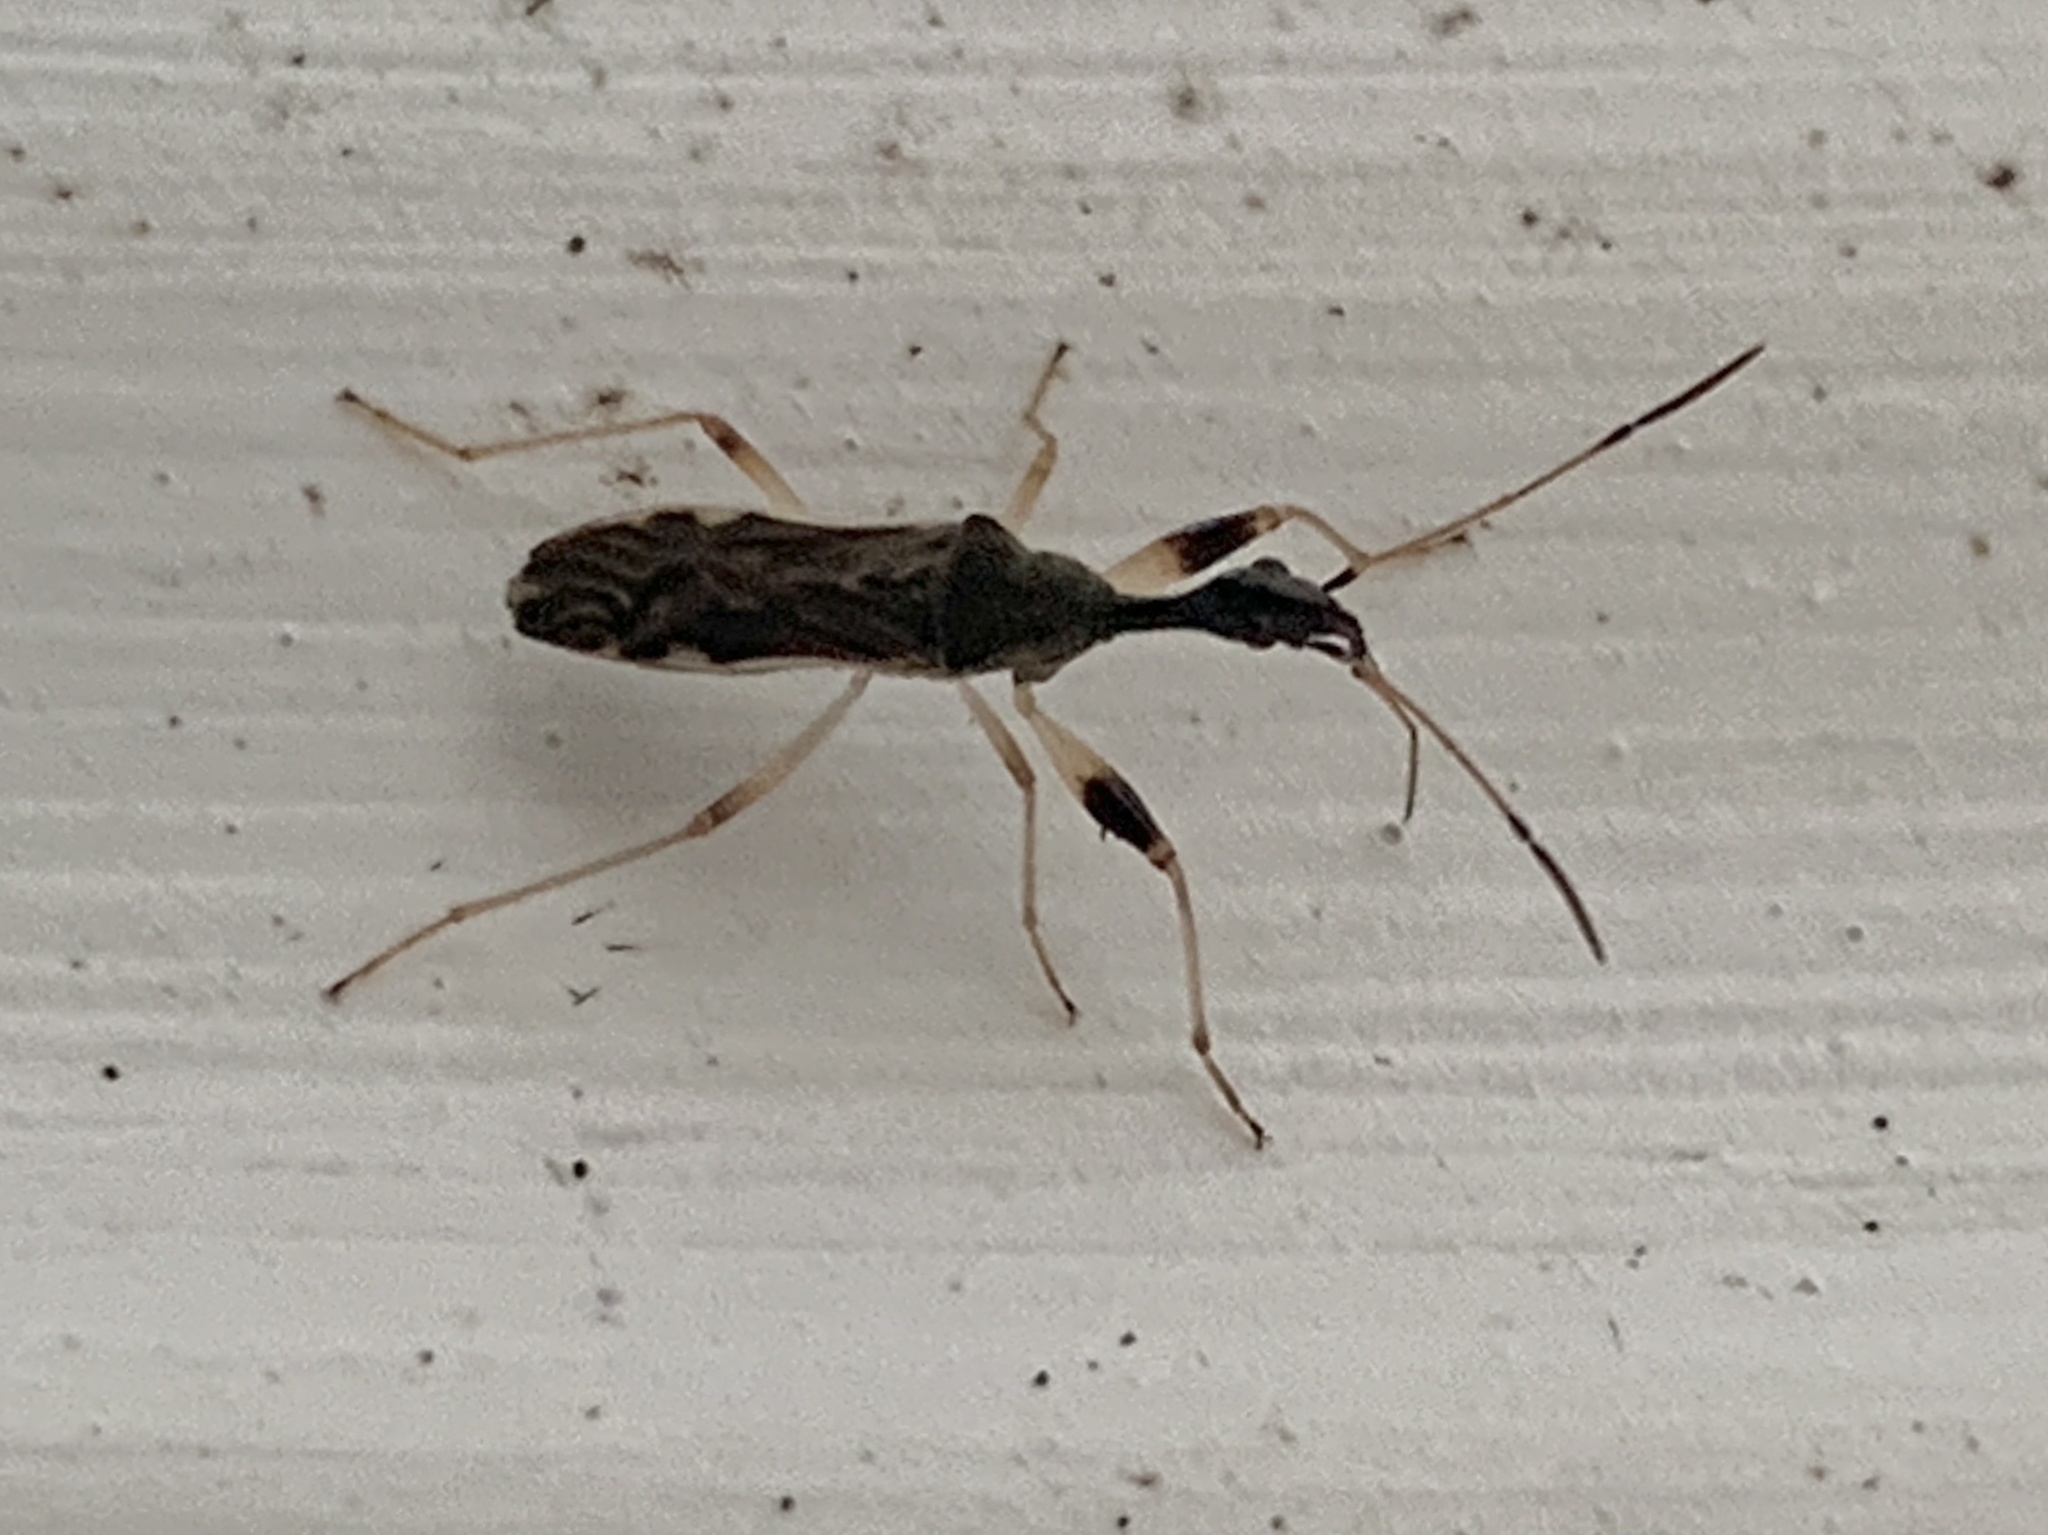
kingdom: Animalia
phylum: Arthropoda
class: Insecta
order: Hemiptera
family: Rhyparochromidae
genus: Myodocha
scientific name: Myodocha serripes
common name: Long-necked seed bug
